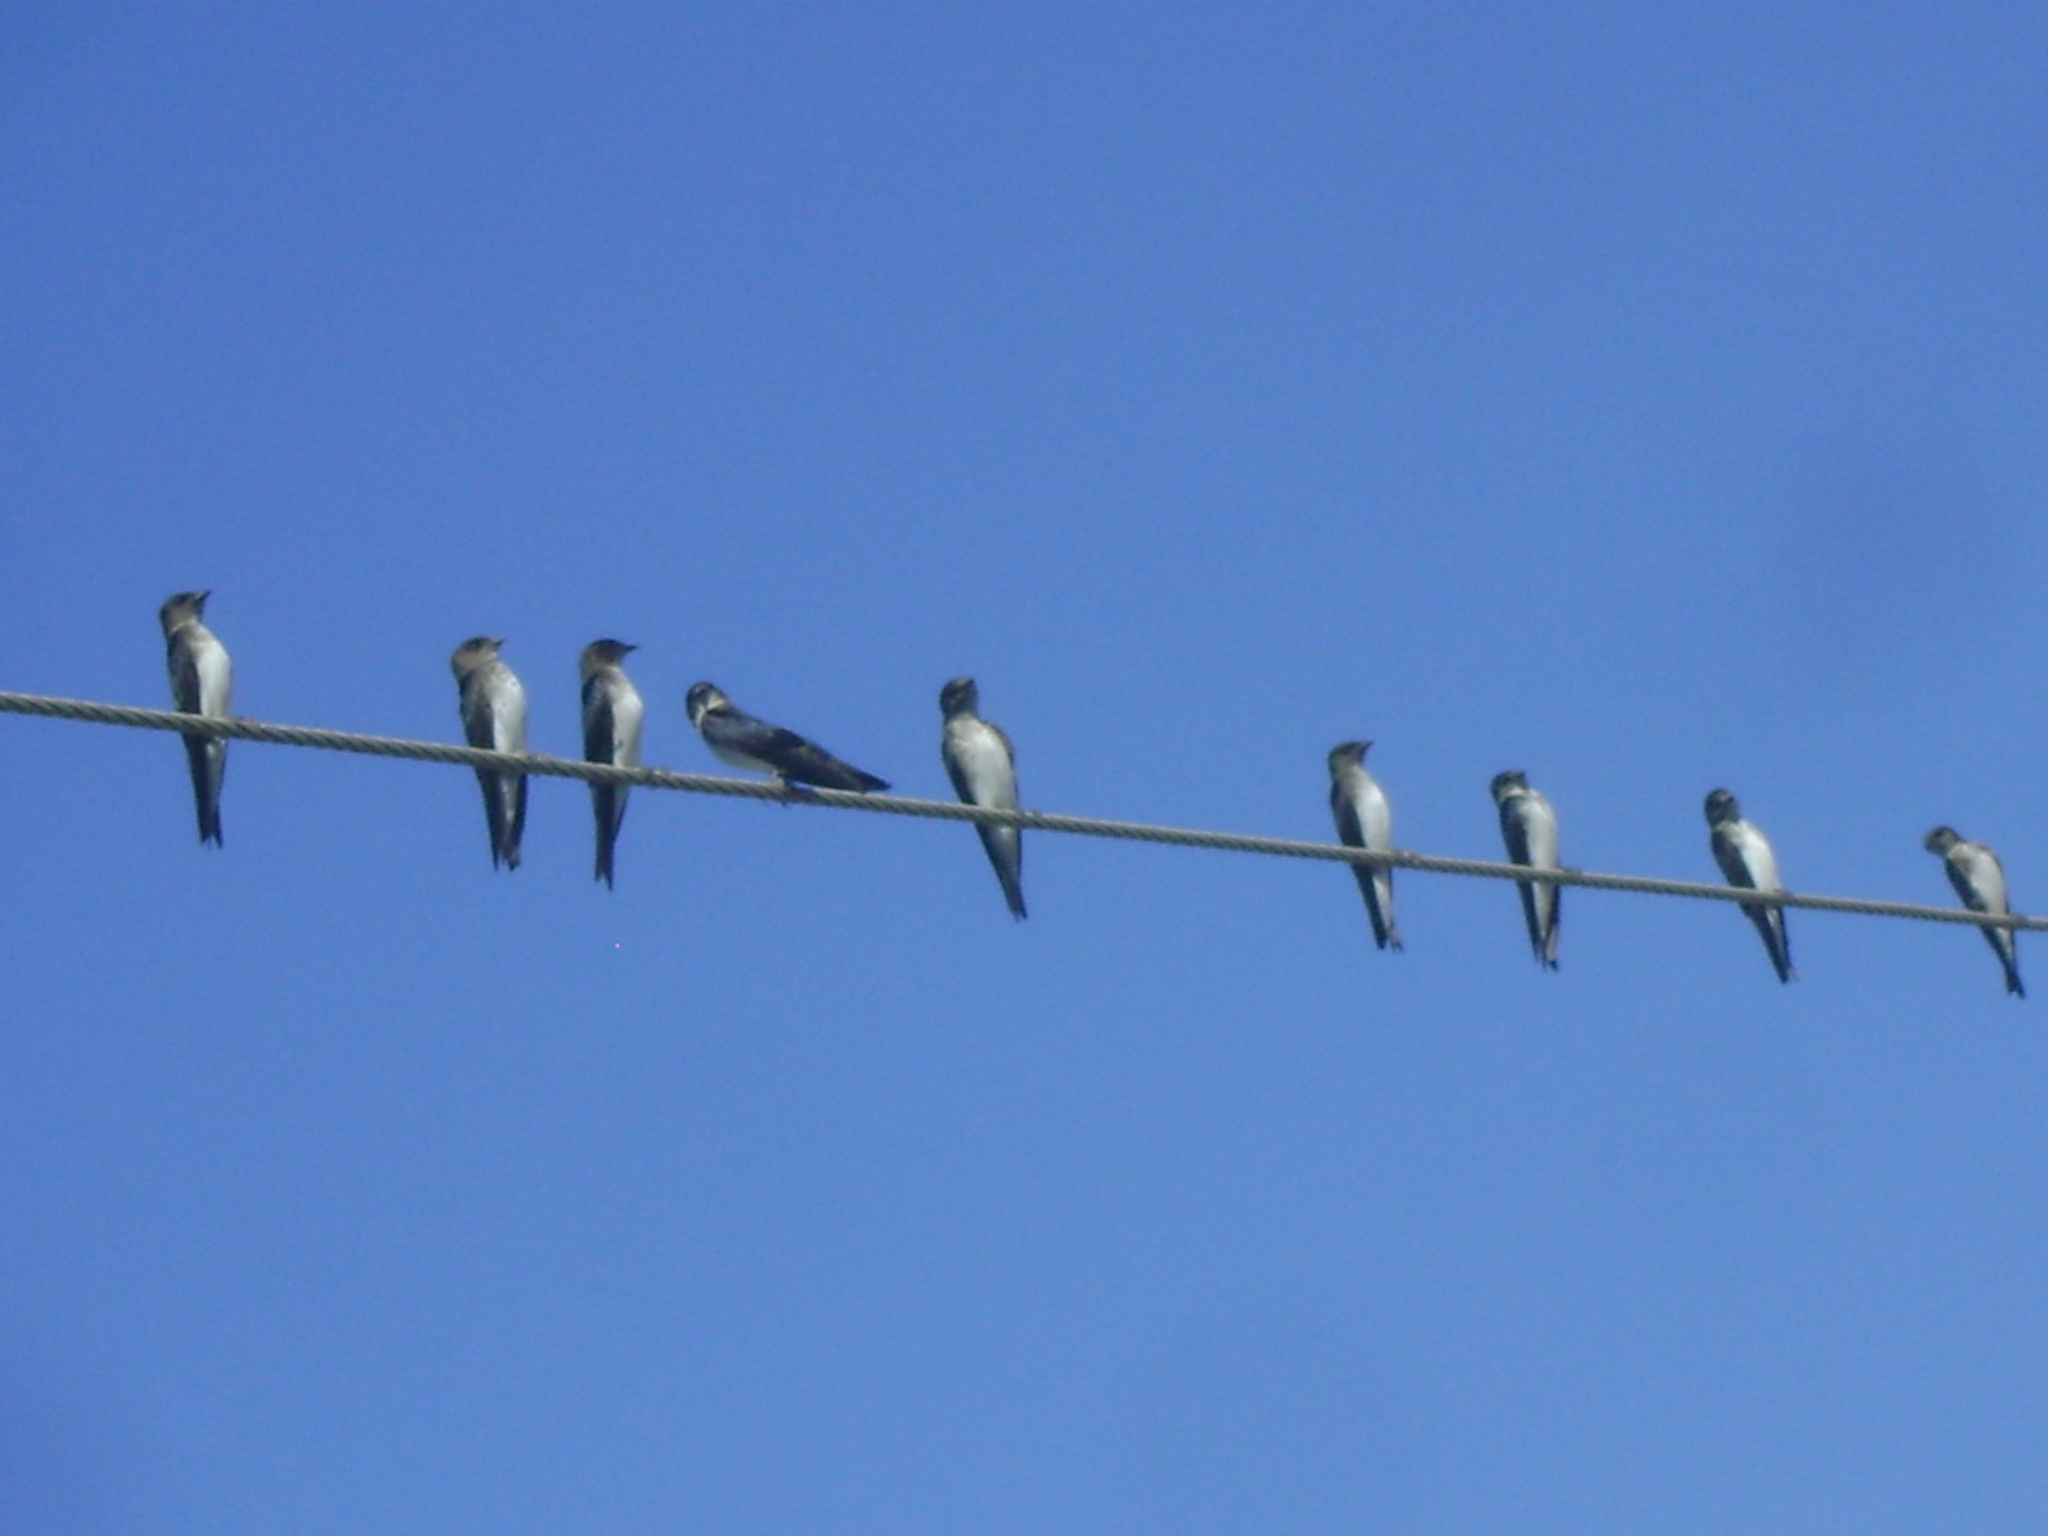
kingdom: Animalia
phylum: Chordata
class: Aves
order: Passeriformes
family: Hirundinidae
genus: Progne
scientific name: Progne chalybea
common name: Grey-breasted martin
